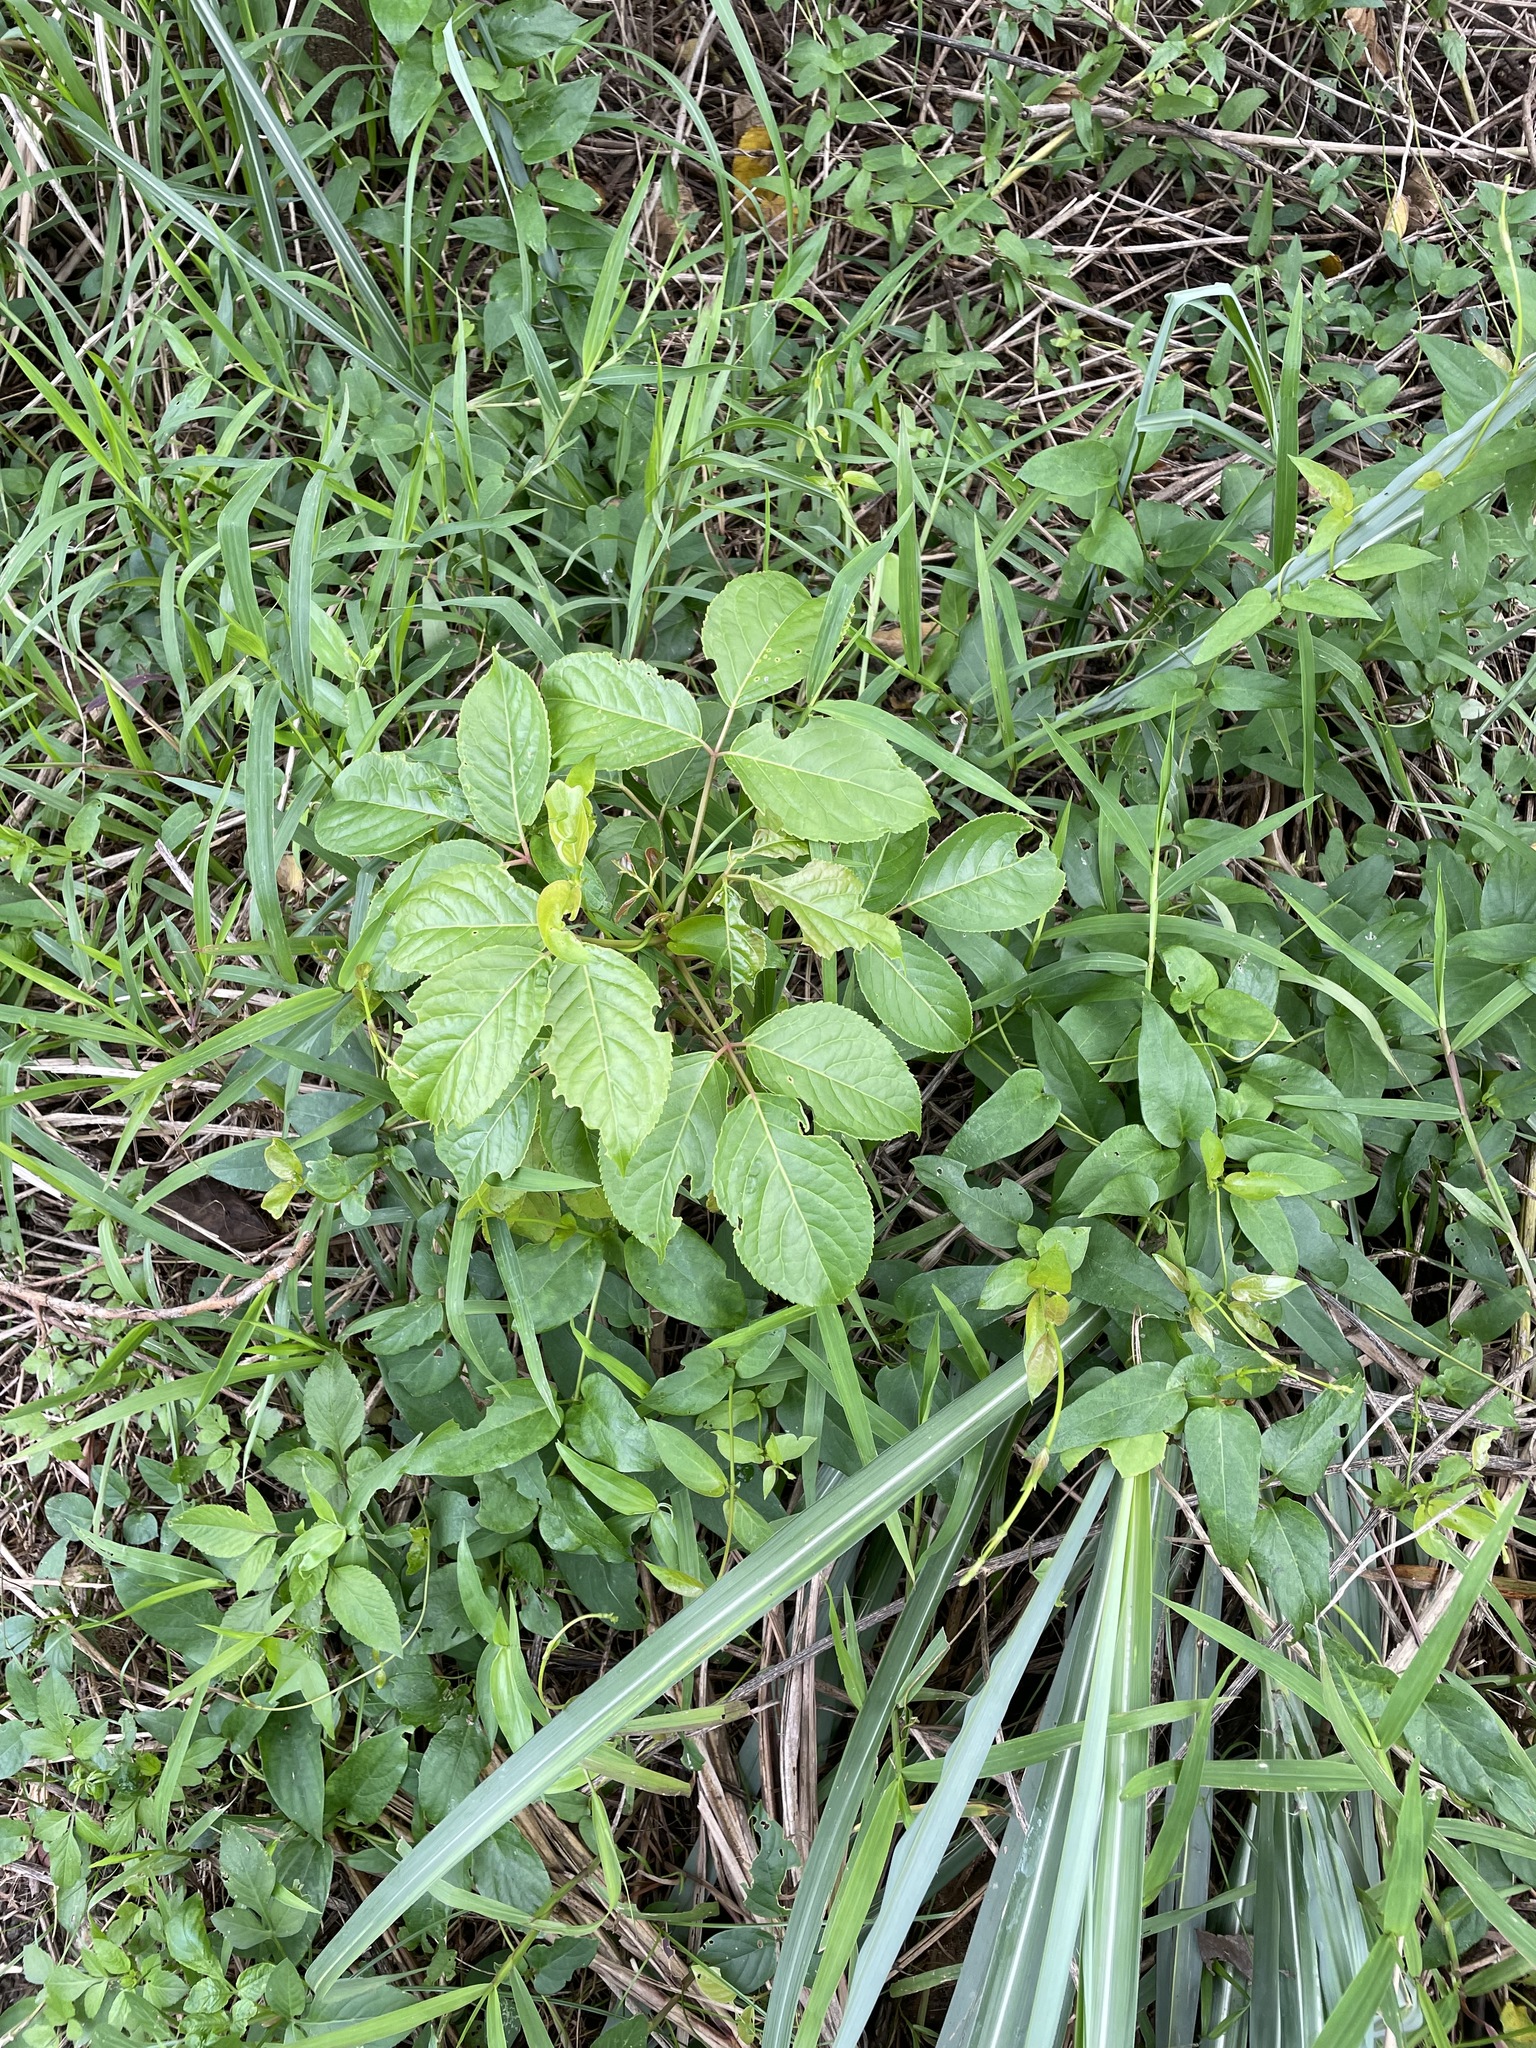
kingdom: Plantae
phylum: Tracheophyta
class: Magnoliopsida
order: Malpighiales
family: Phyllanthaceae
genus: Bischofia
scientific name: Bischofia javanica
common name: Javanese bishopwood
